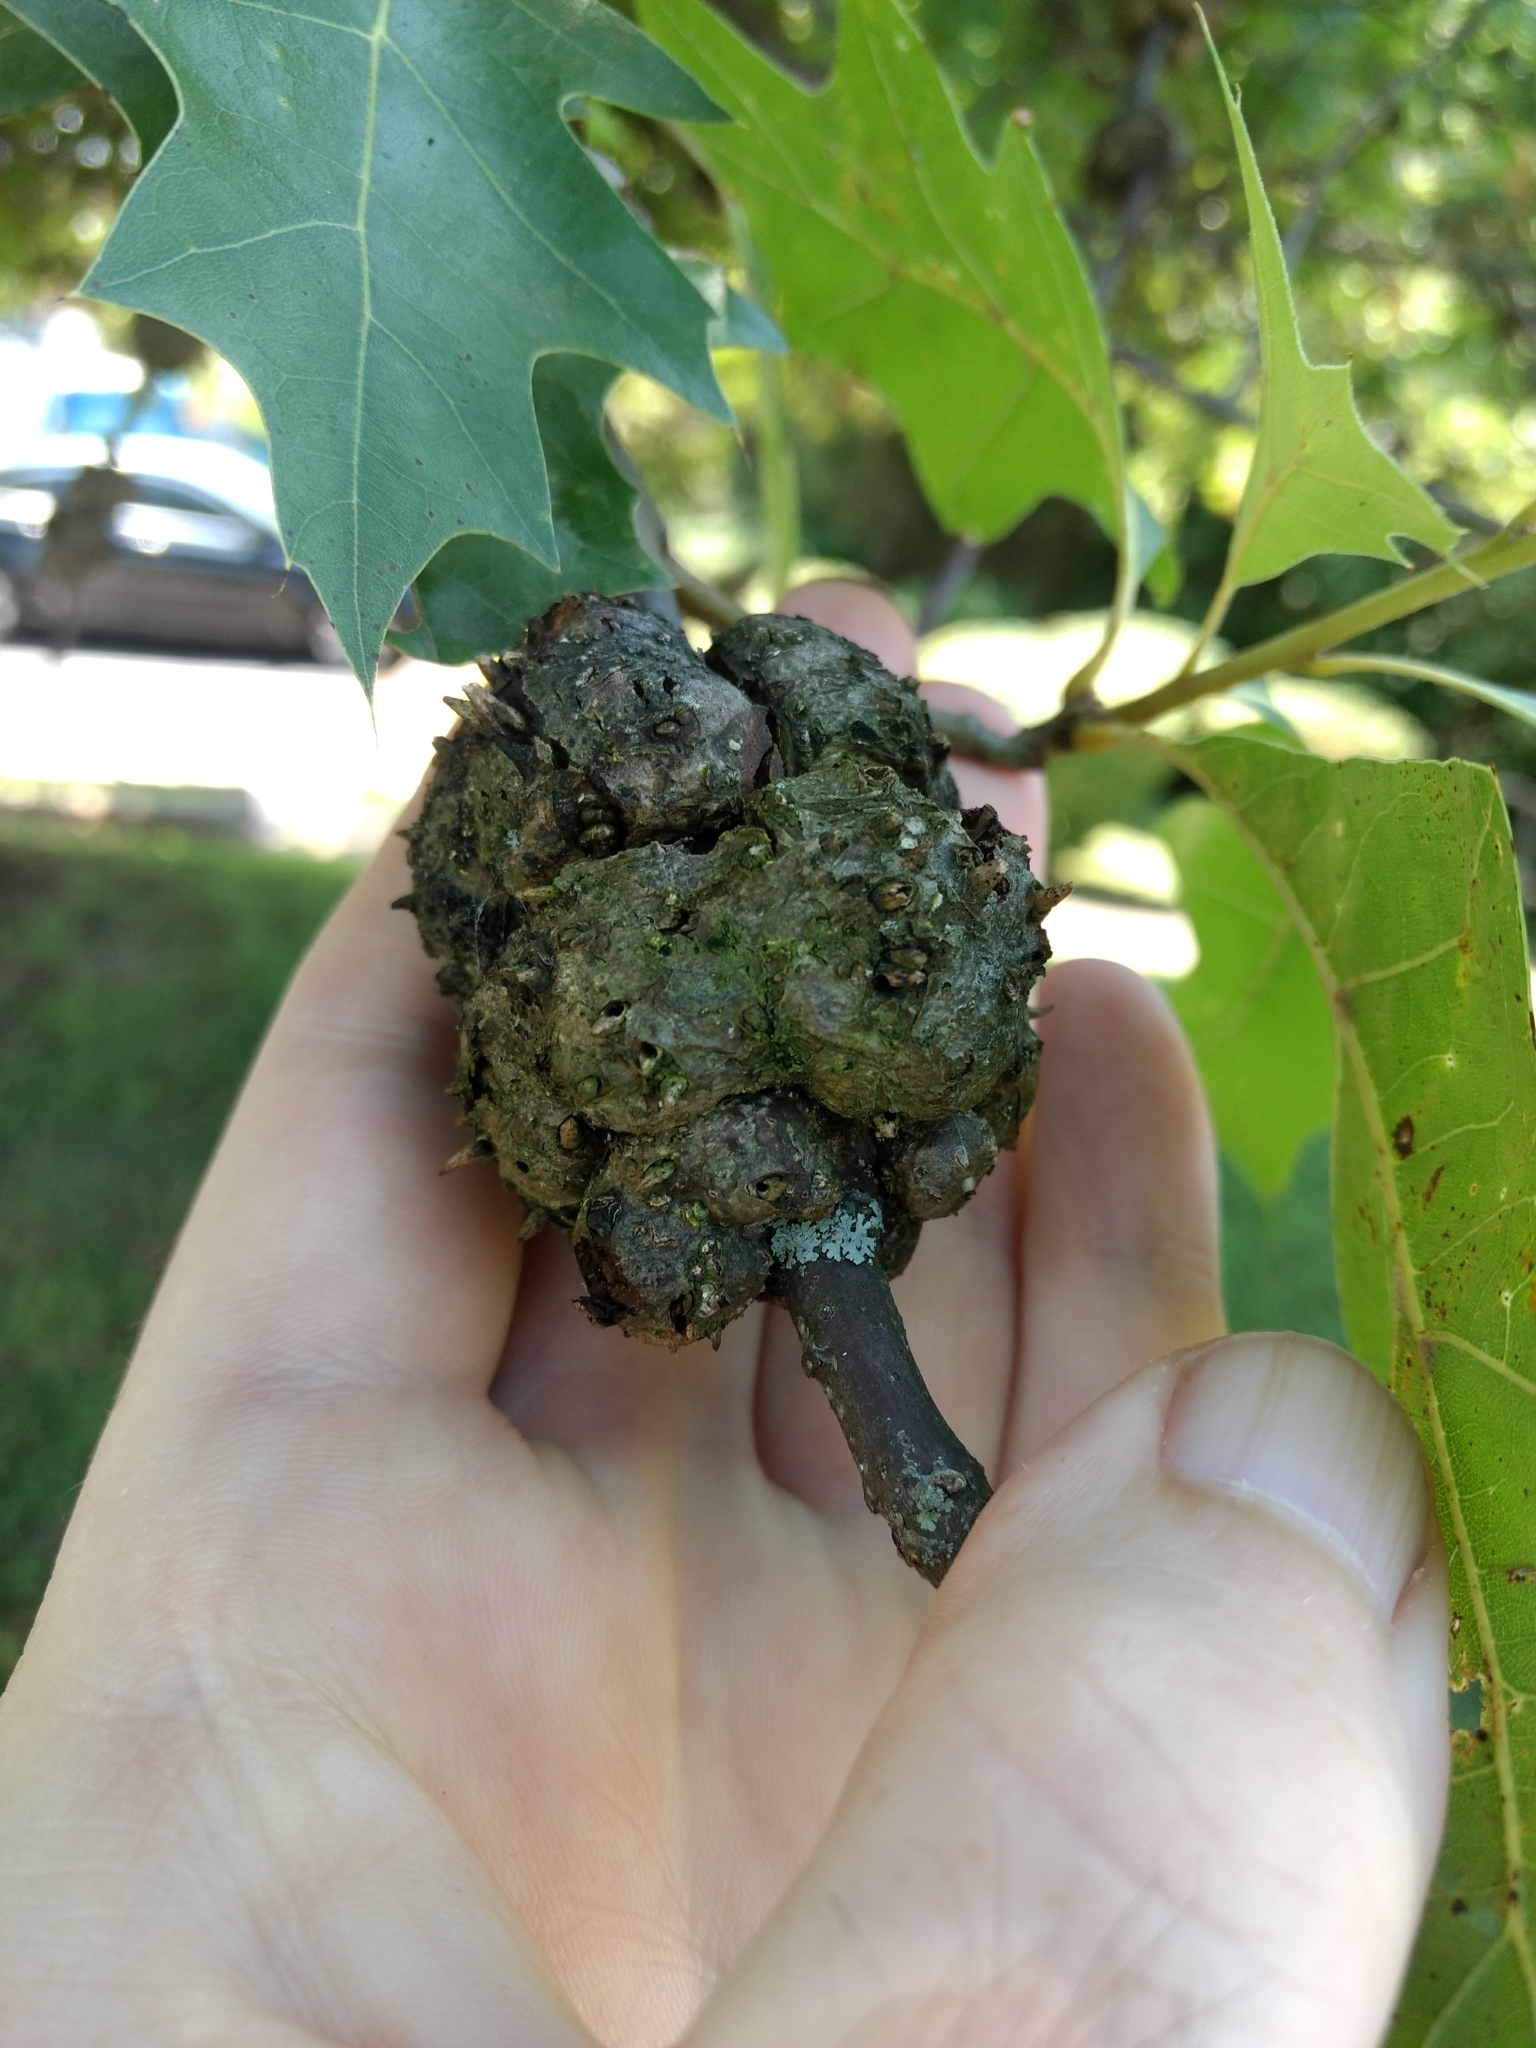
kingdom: Animalia
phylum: Arthropoda
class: Insecta
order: Hymenoptera
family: Cynipidae
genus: Callirhytis
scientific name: Callirhytis
